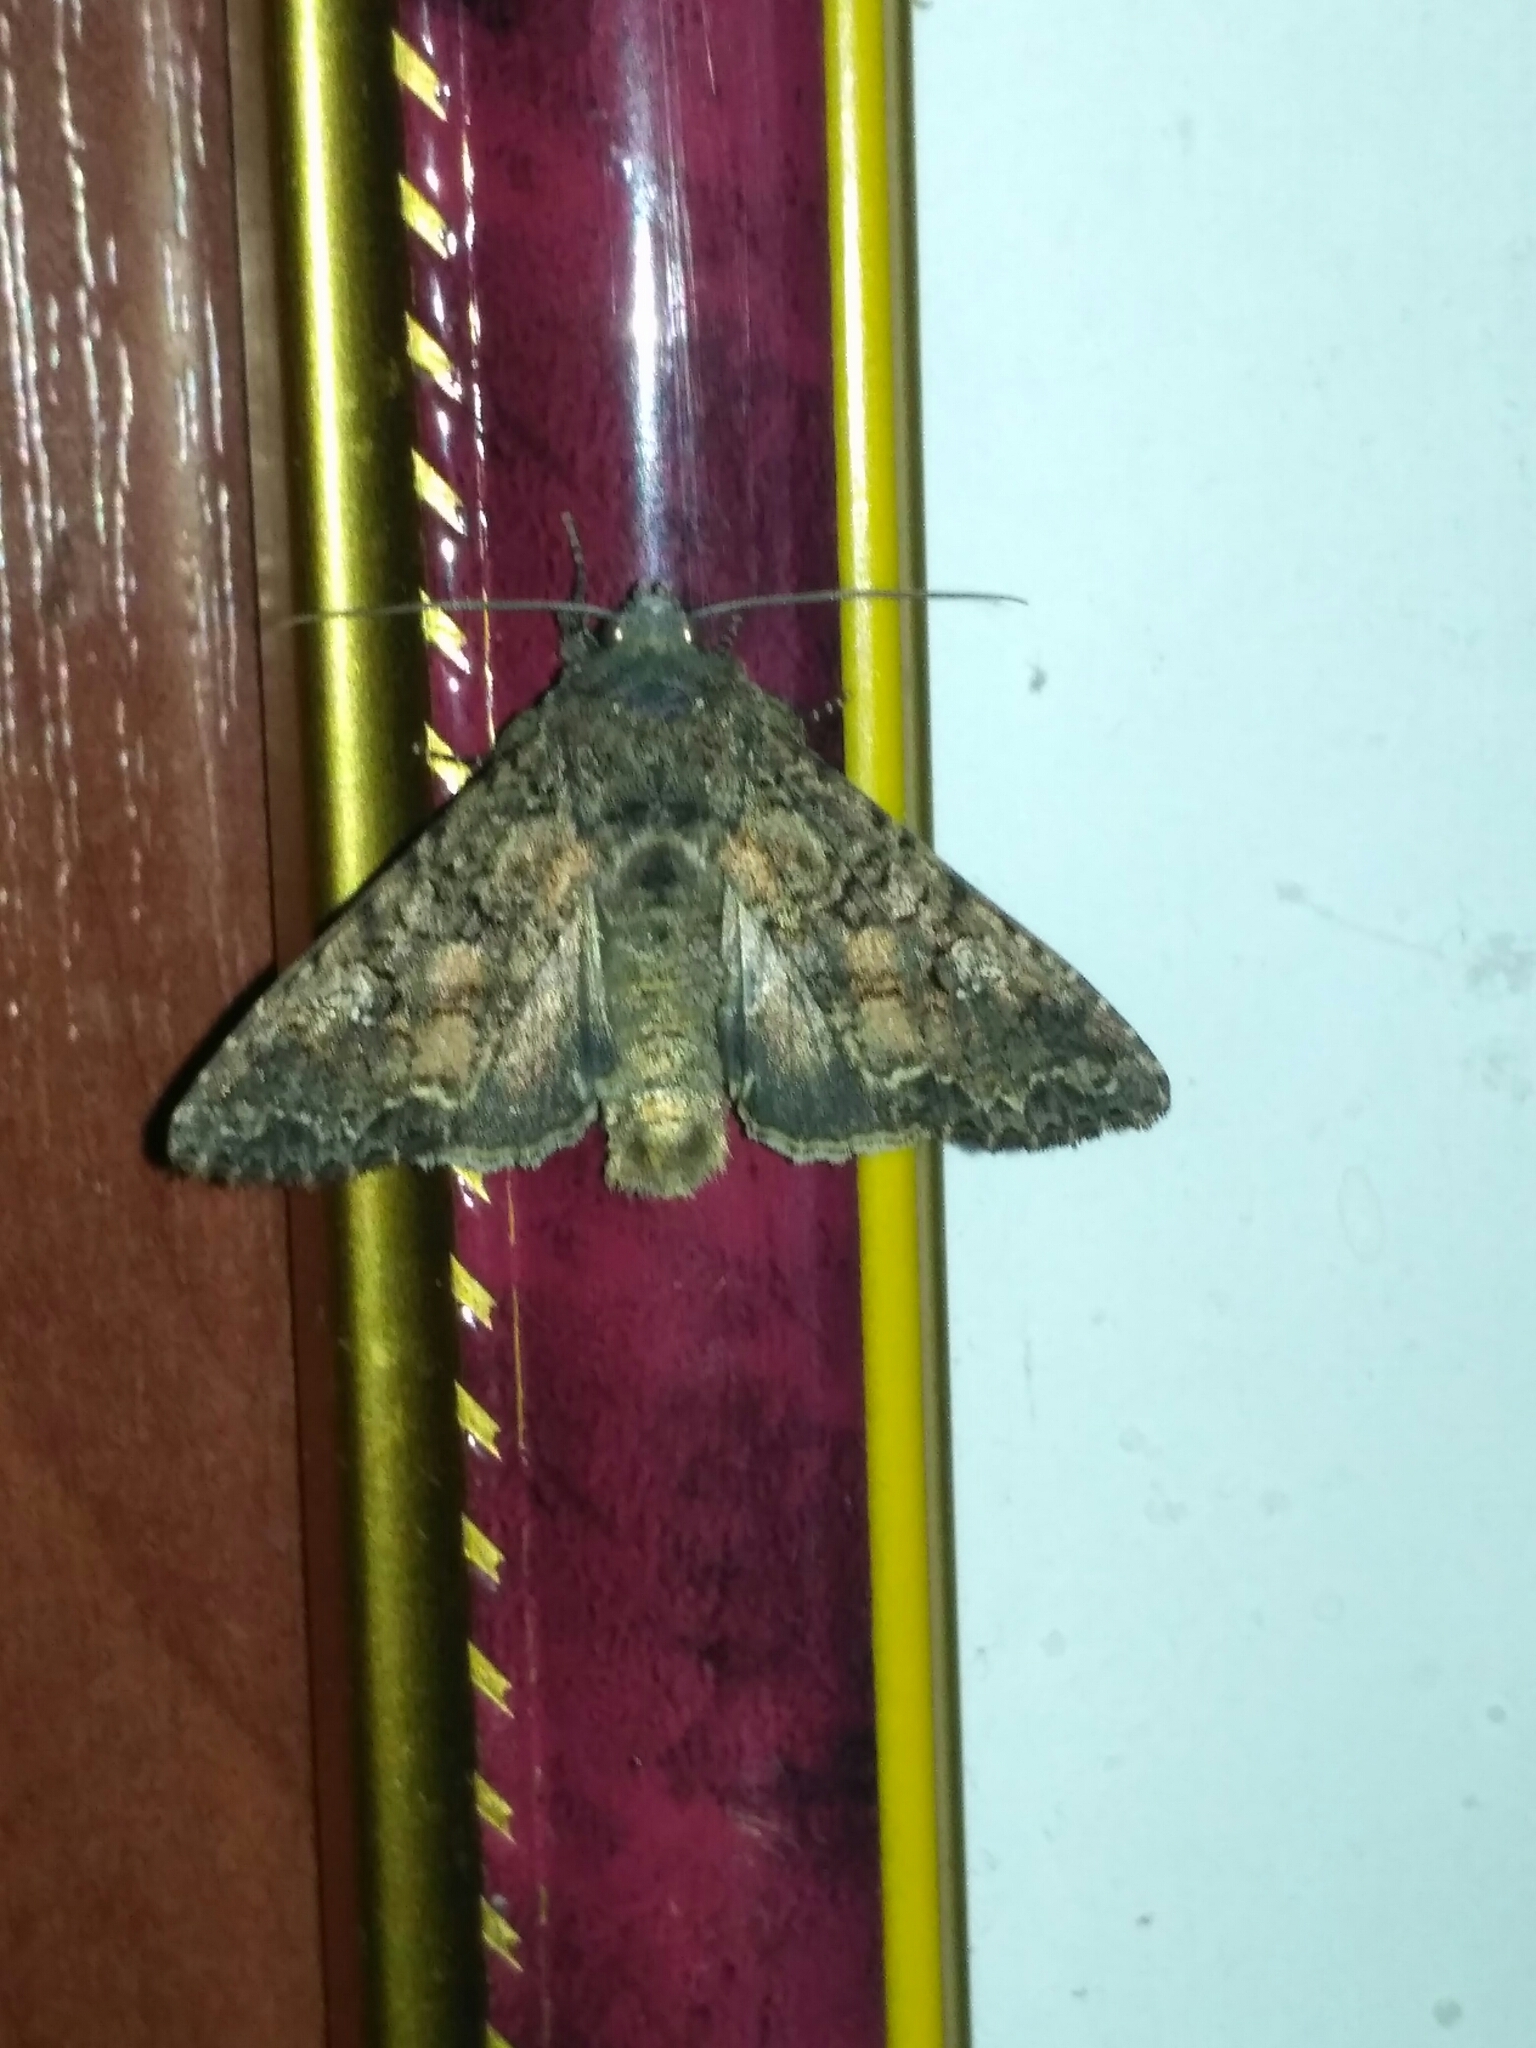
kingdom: Animalia
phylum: Arthropoda
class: Insecta
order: Lepidoptera
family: Noctuidae
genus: Mamestra
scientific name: Mamestra brassicae
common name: Cabbage moth
